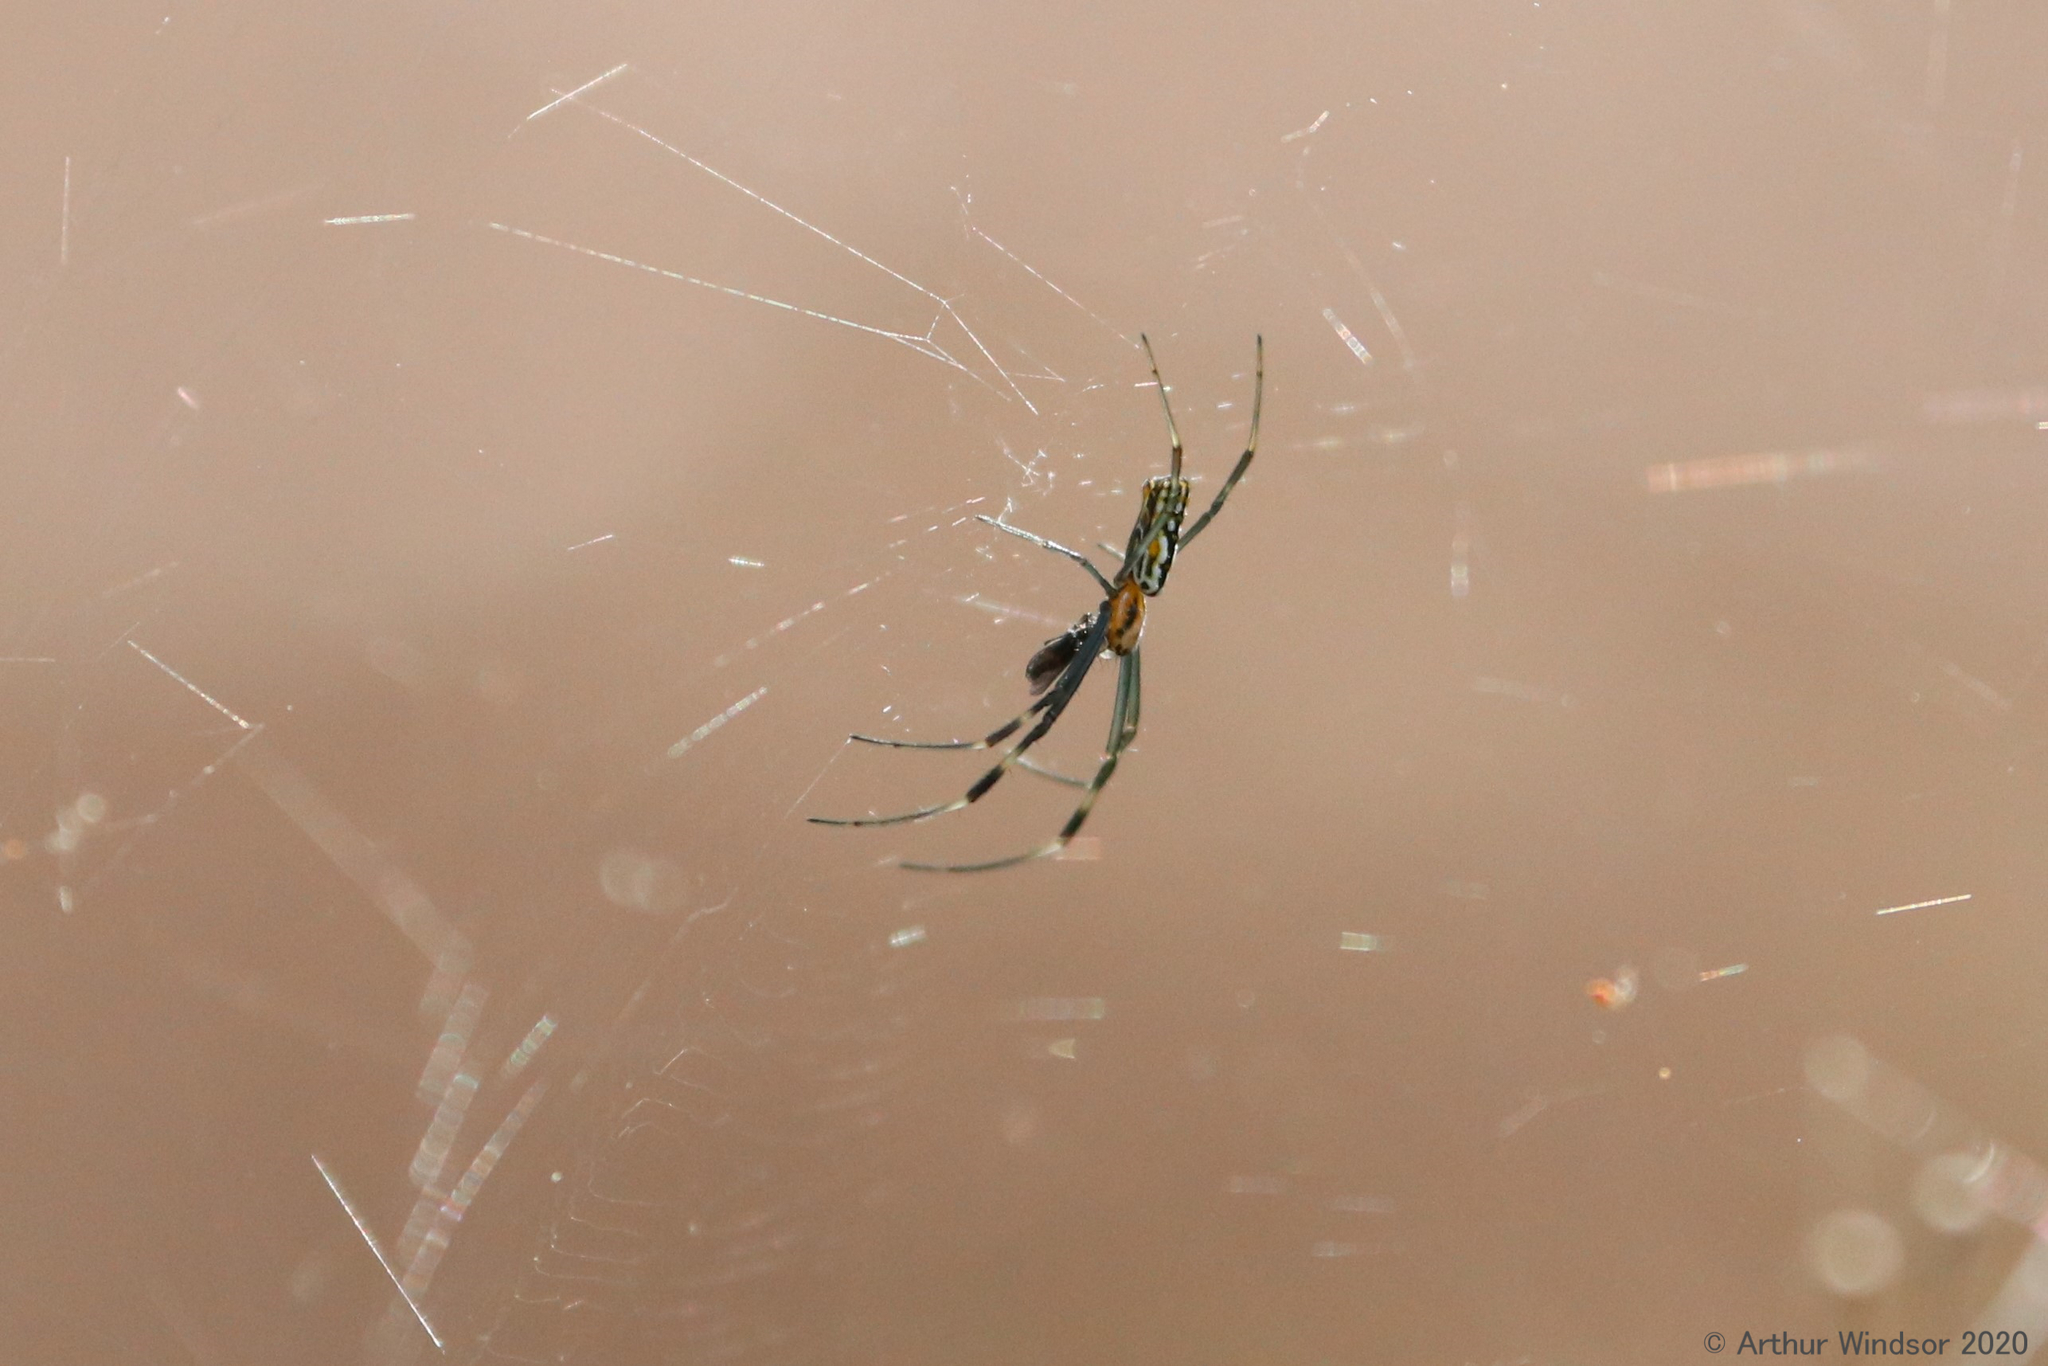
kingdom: Animalia
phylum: Arthropoda
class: Arachnida
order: Araneae
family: Araneidae
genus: Trichonephila
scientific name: Trichonephila clavipes
